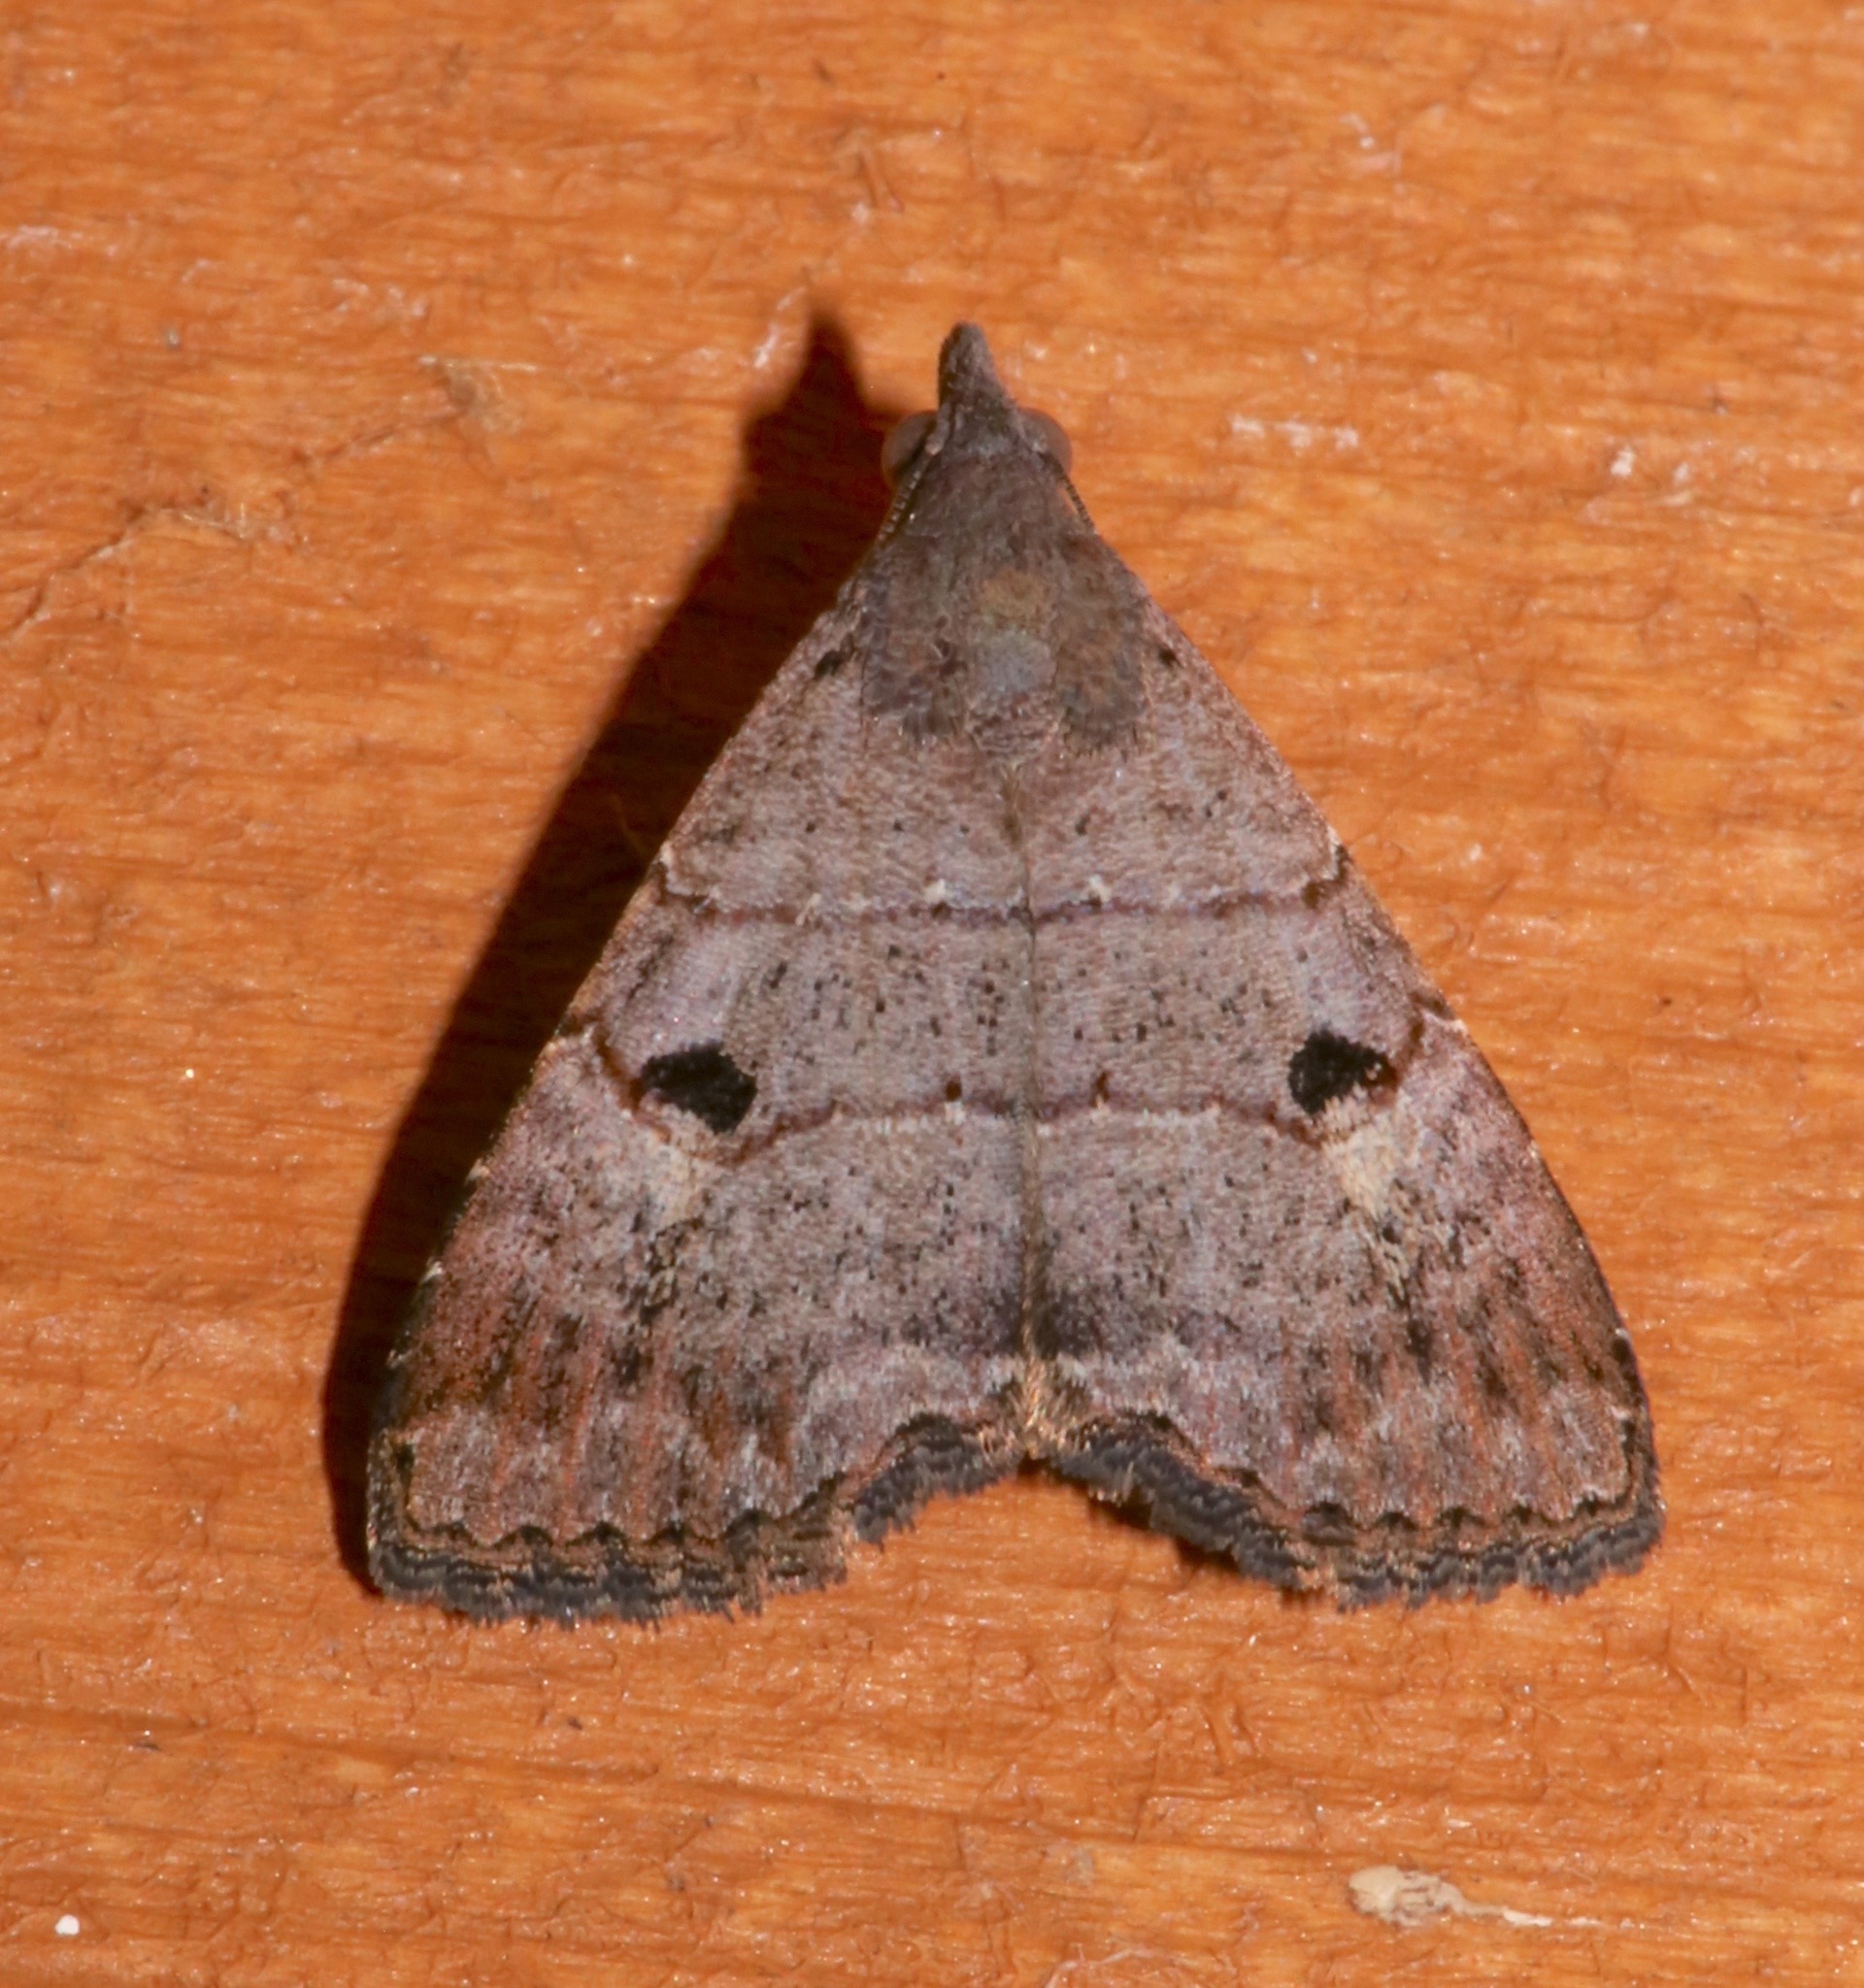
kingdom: Animalia
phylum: Arthropoda
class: Insecta
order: Lepidoptera
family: Noctuidae
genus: Hormoschista
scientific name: Hormoschista latipalpis
